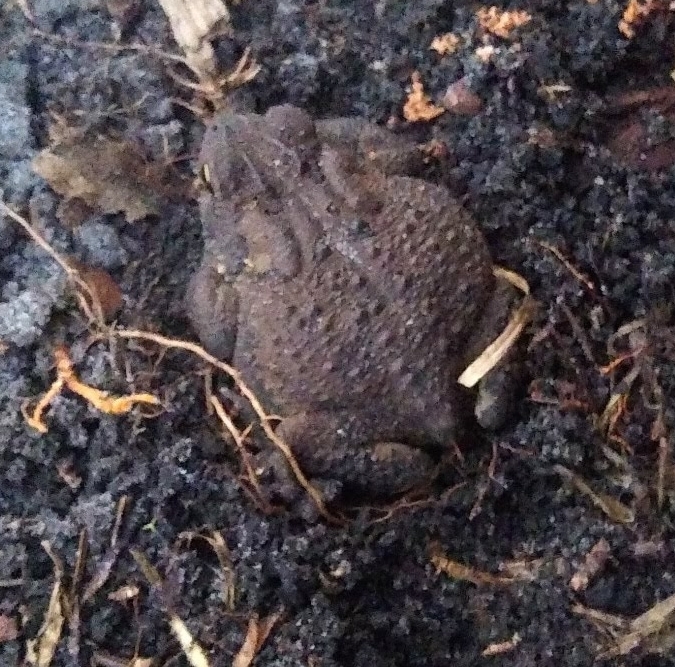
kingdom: Animalia
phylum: Chordata
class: Amphibia
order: Anura
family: Bufonidae
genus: Anaxyrus
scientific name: Anaxyrus terrestris
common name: Southern toad
